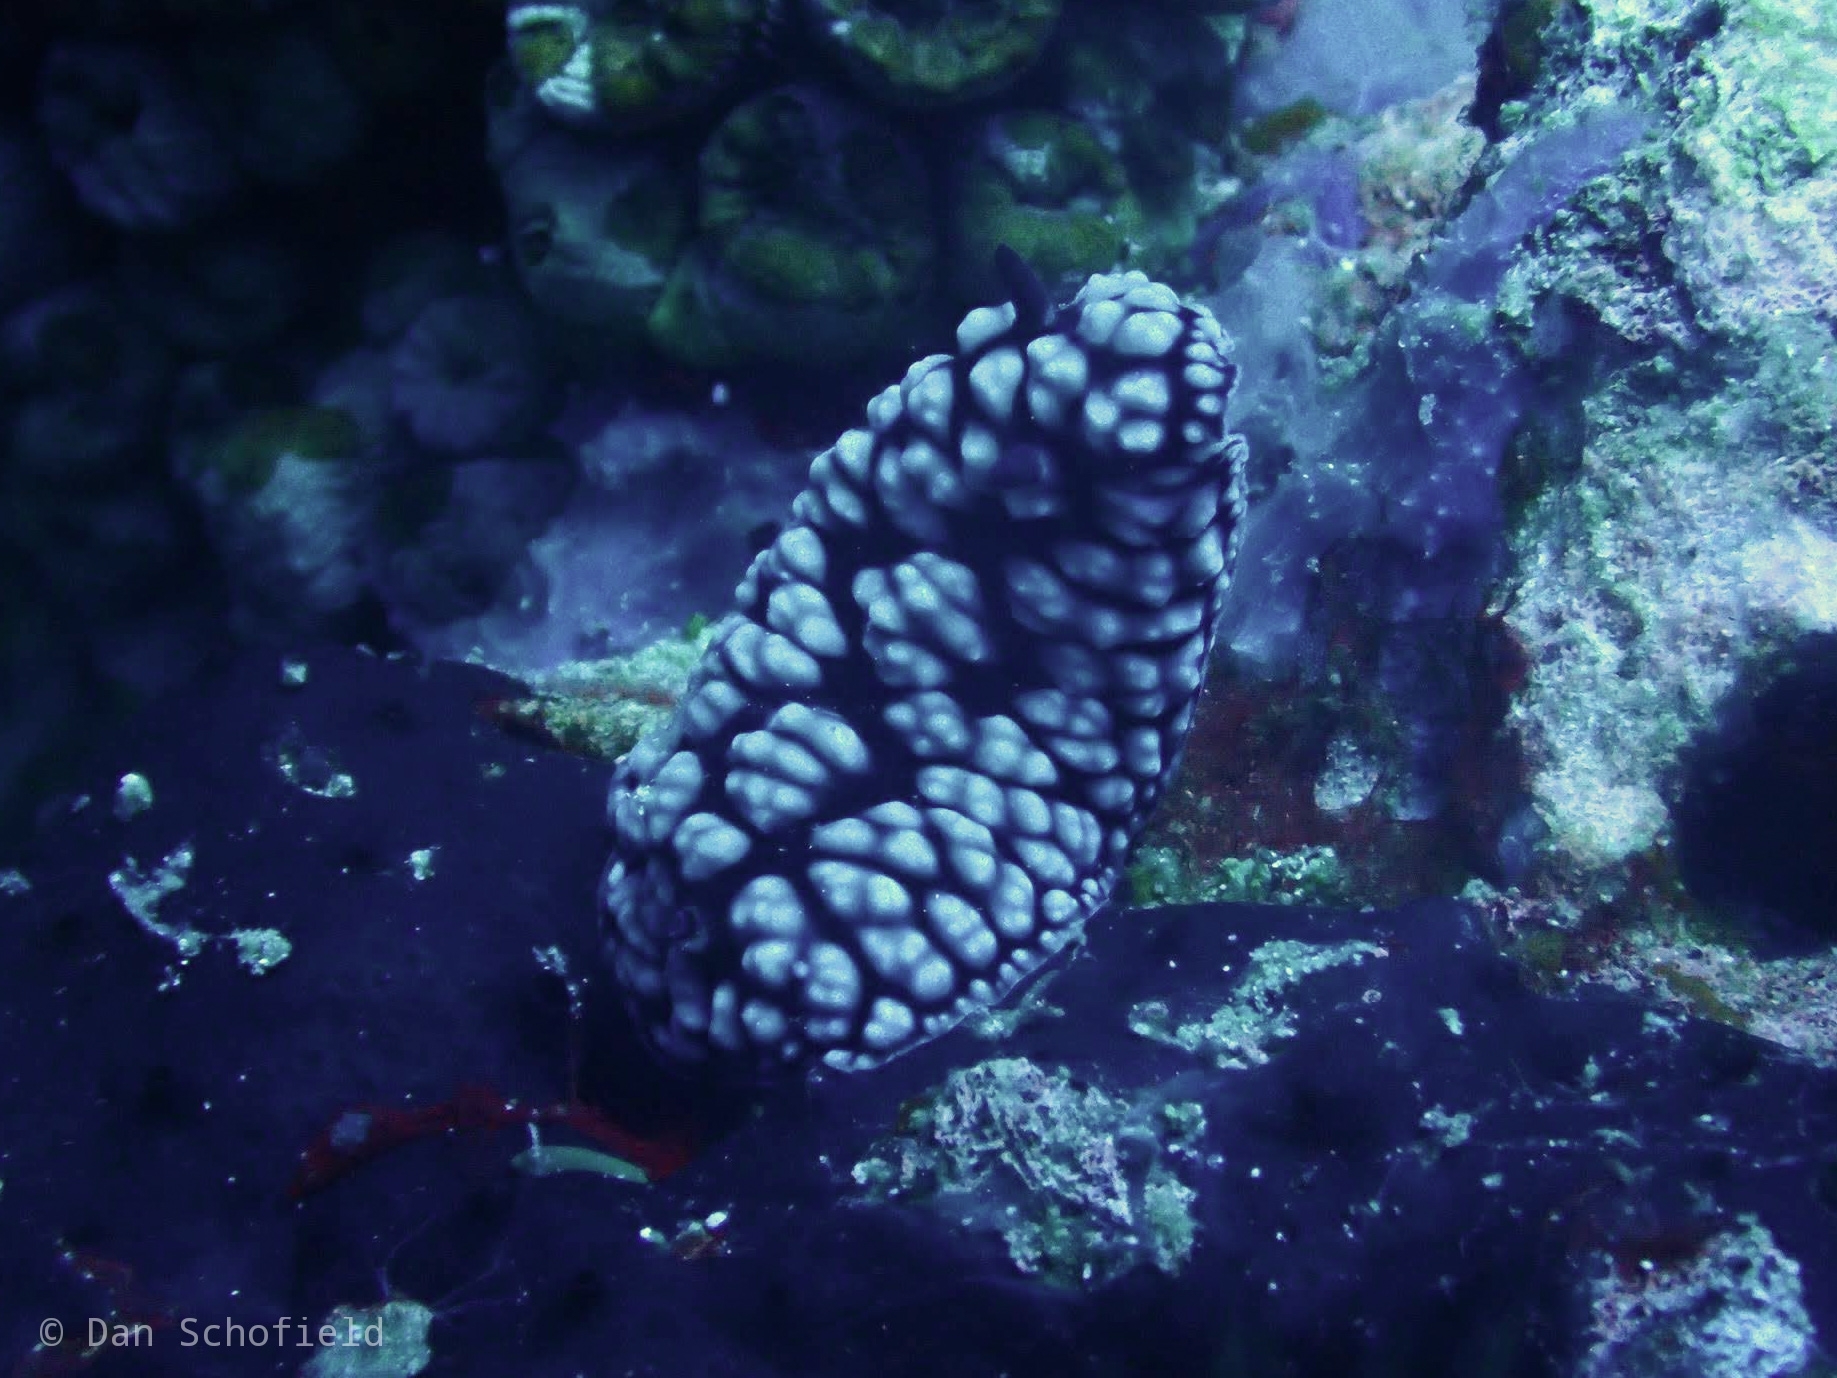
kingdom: Animalia
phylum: Mollusca
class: Gastropoda
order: Nudibranchia
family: Phyllidiidae
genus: Phyllidiella
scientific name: Phyllidiella pustulosa
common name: Pustular phyllidia
